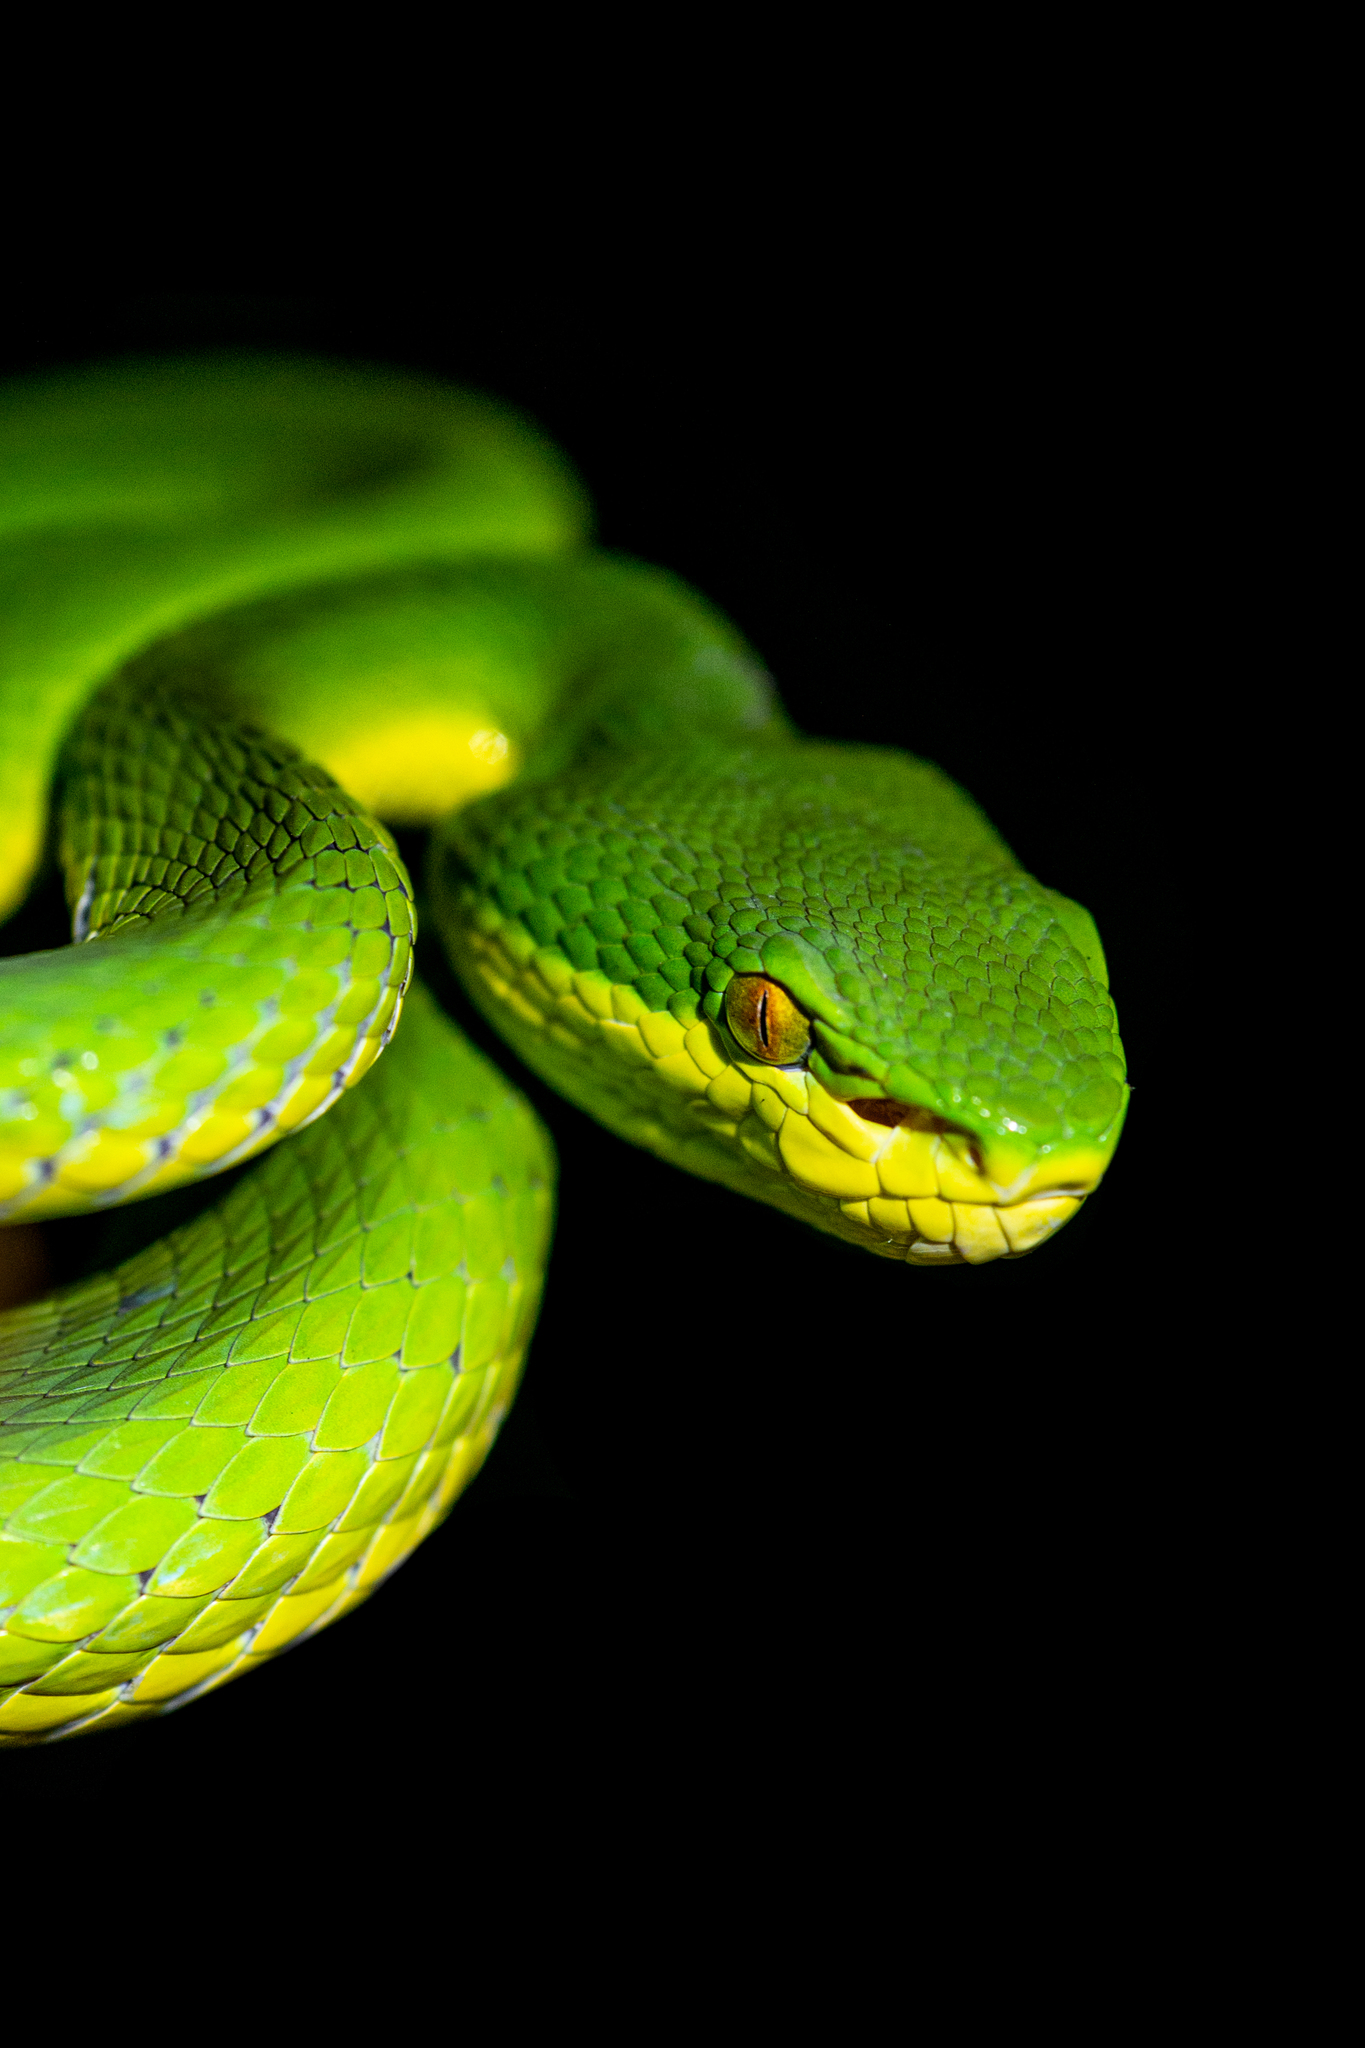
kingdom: Animalia
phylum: Chordata
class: Squamata
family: Viperidae
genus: Trimeresurus
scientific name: Trimeresurus albolabris
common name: White-lipped pitviper
